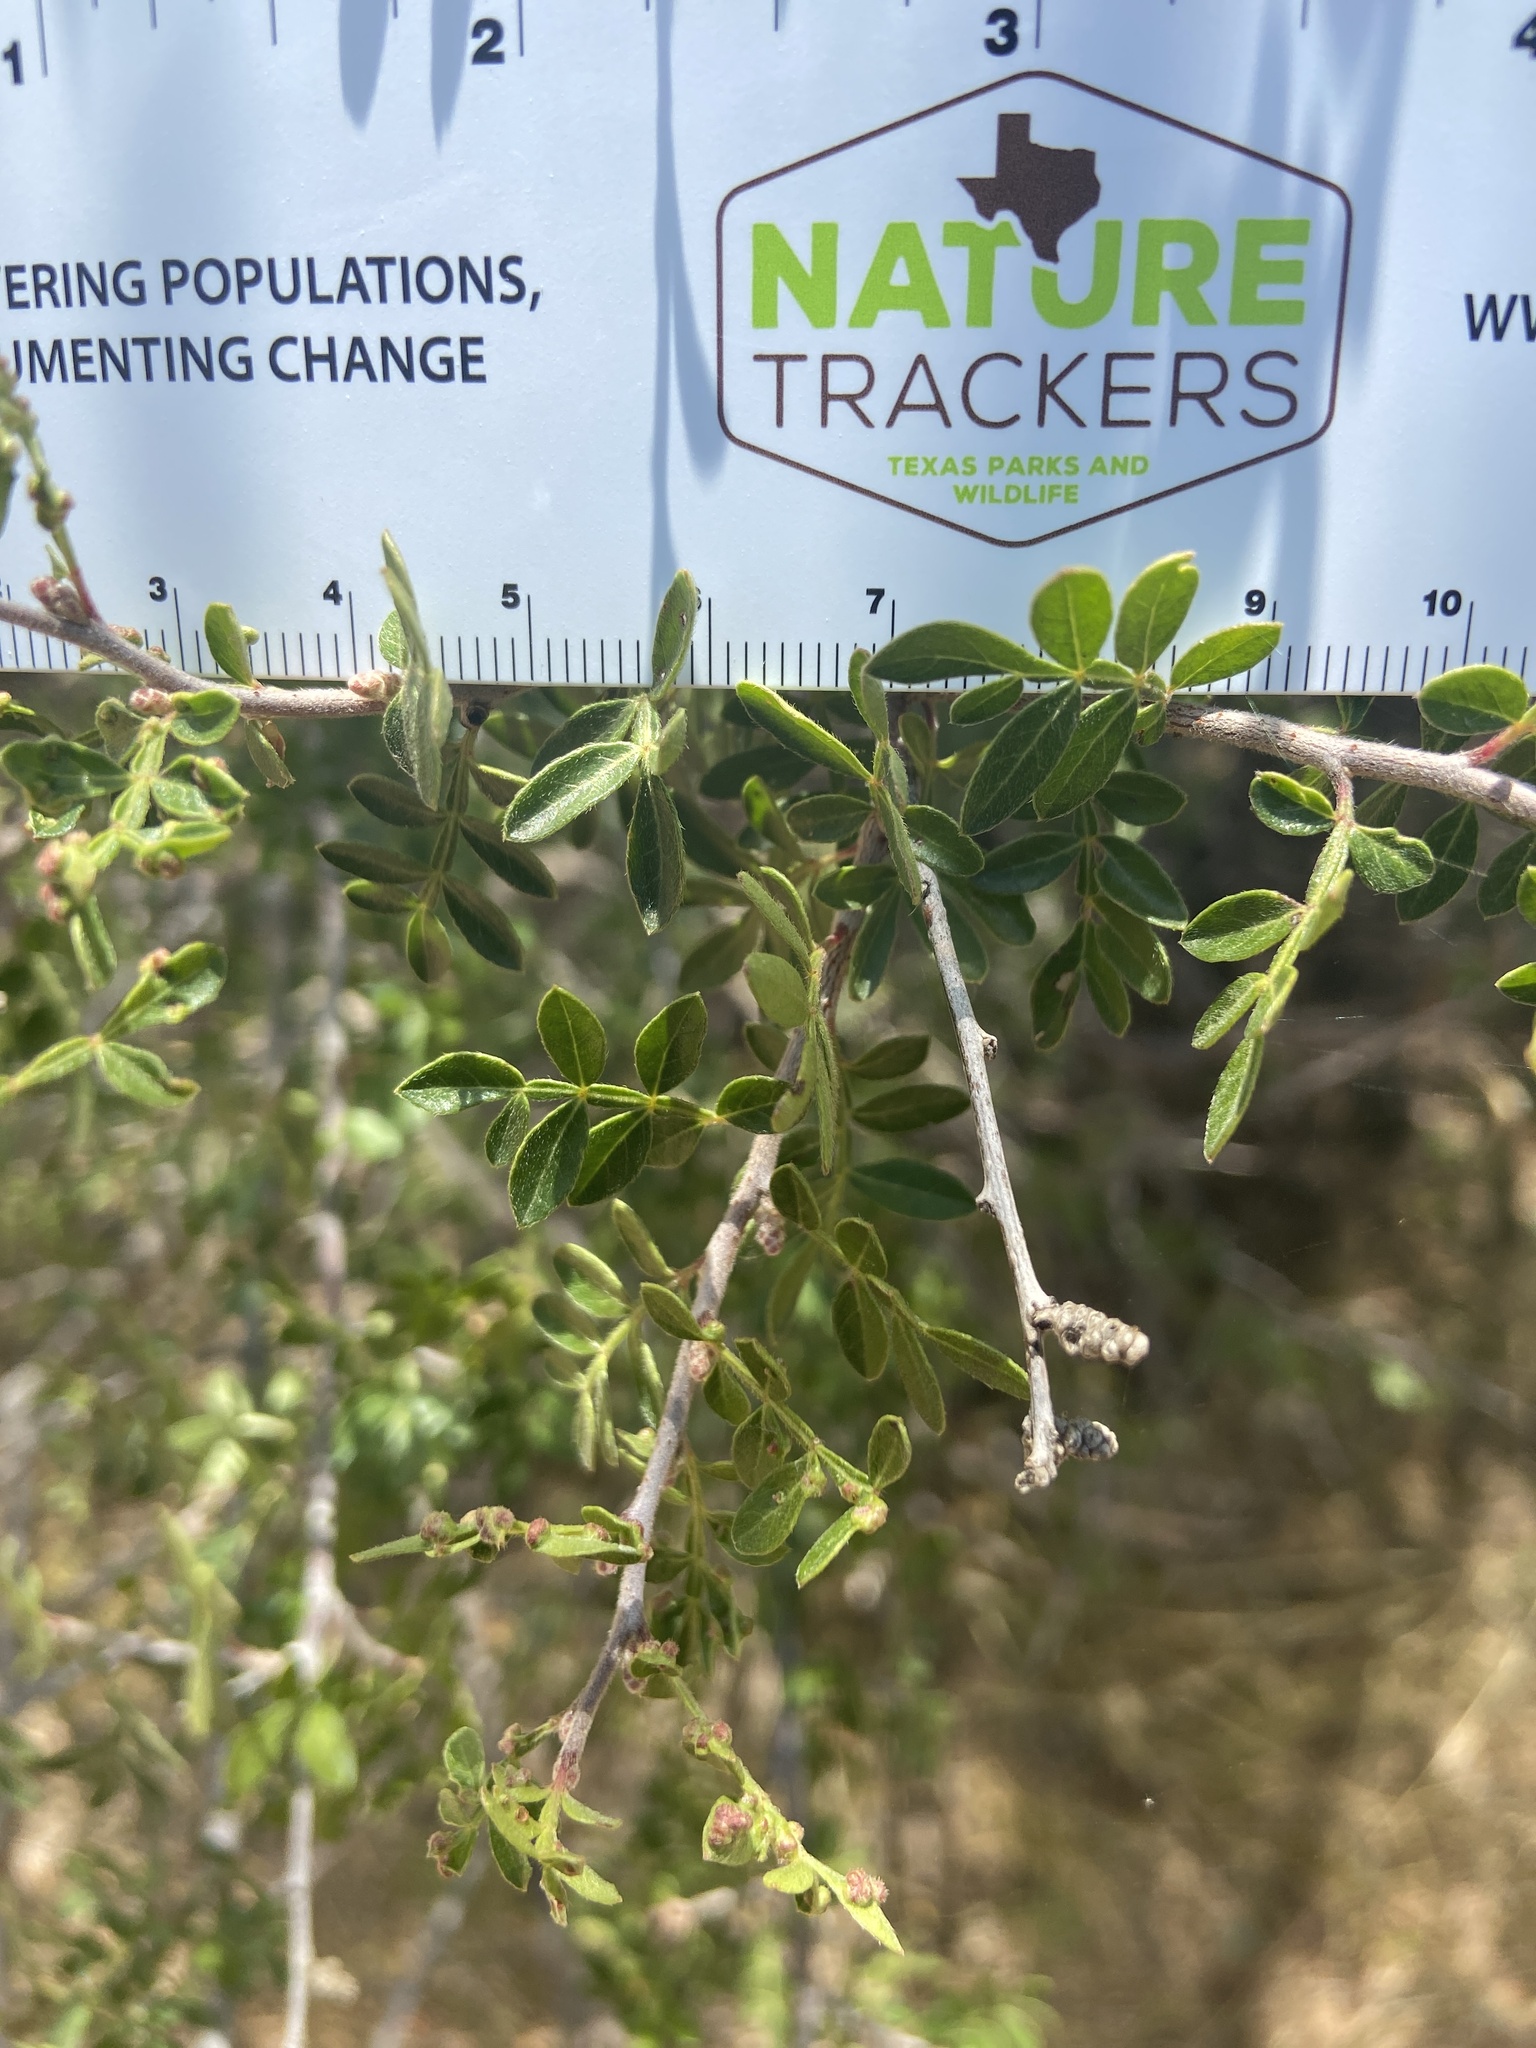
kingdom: Plantae
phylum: Tracheophyta
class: Magnoliopsida
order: Sapindales
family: Anacardiaceae
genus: Rhus
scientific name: Rhus microphylla
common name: Desert sumac
